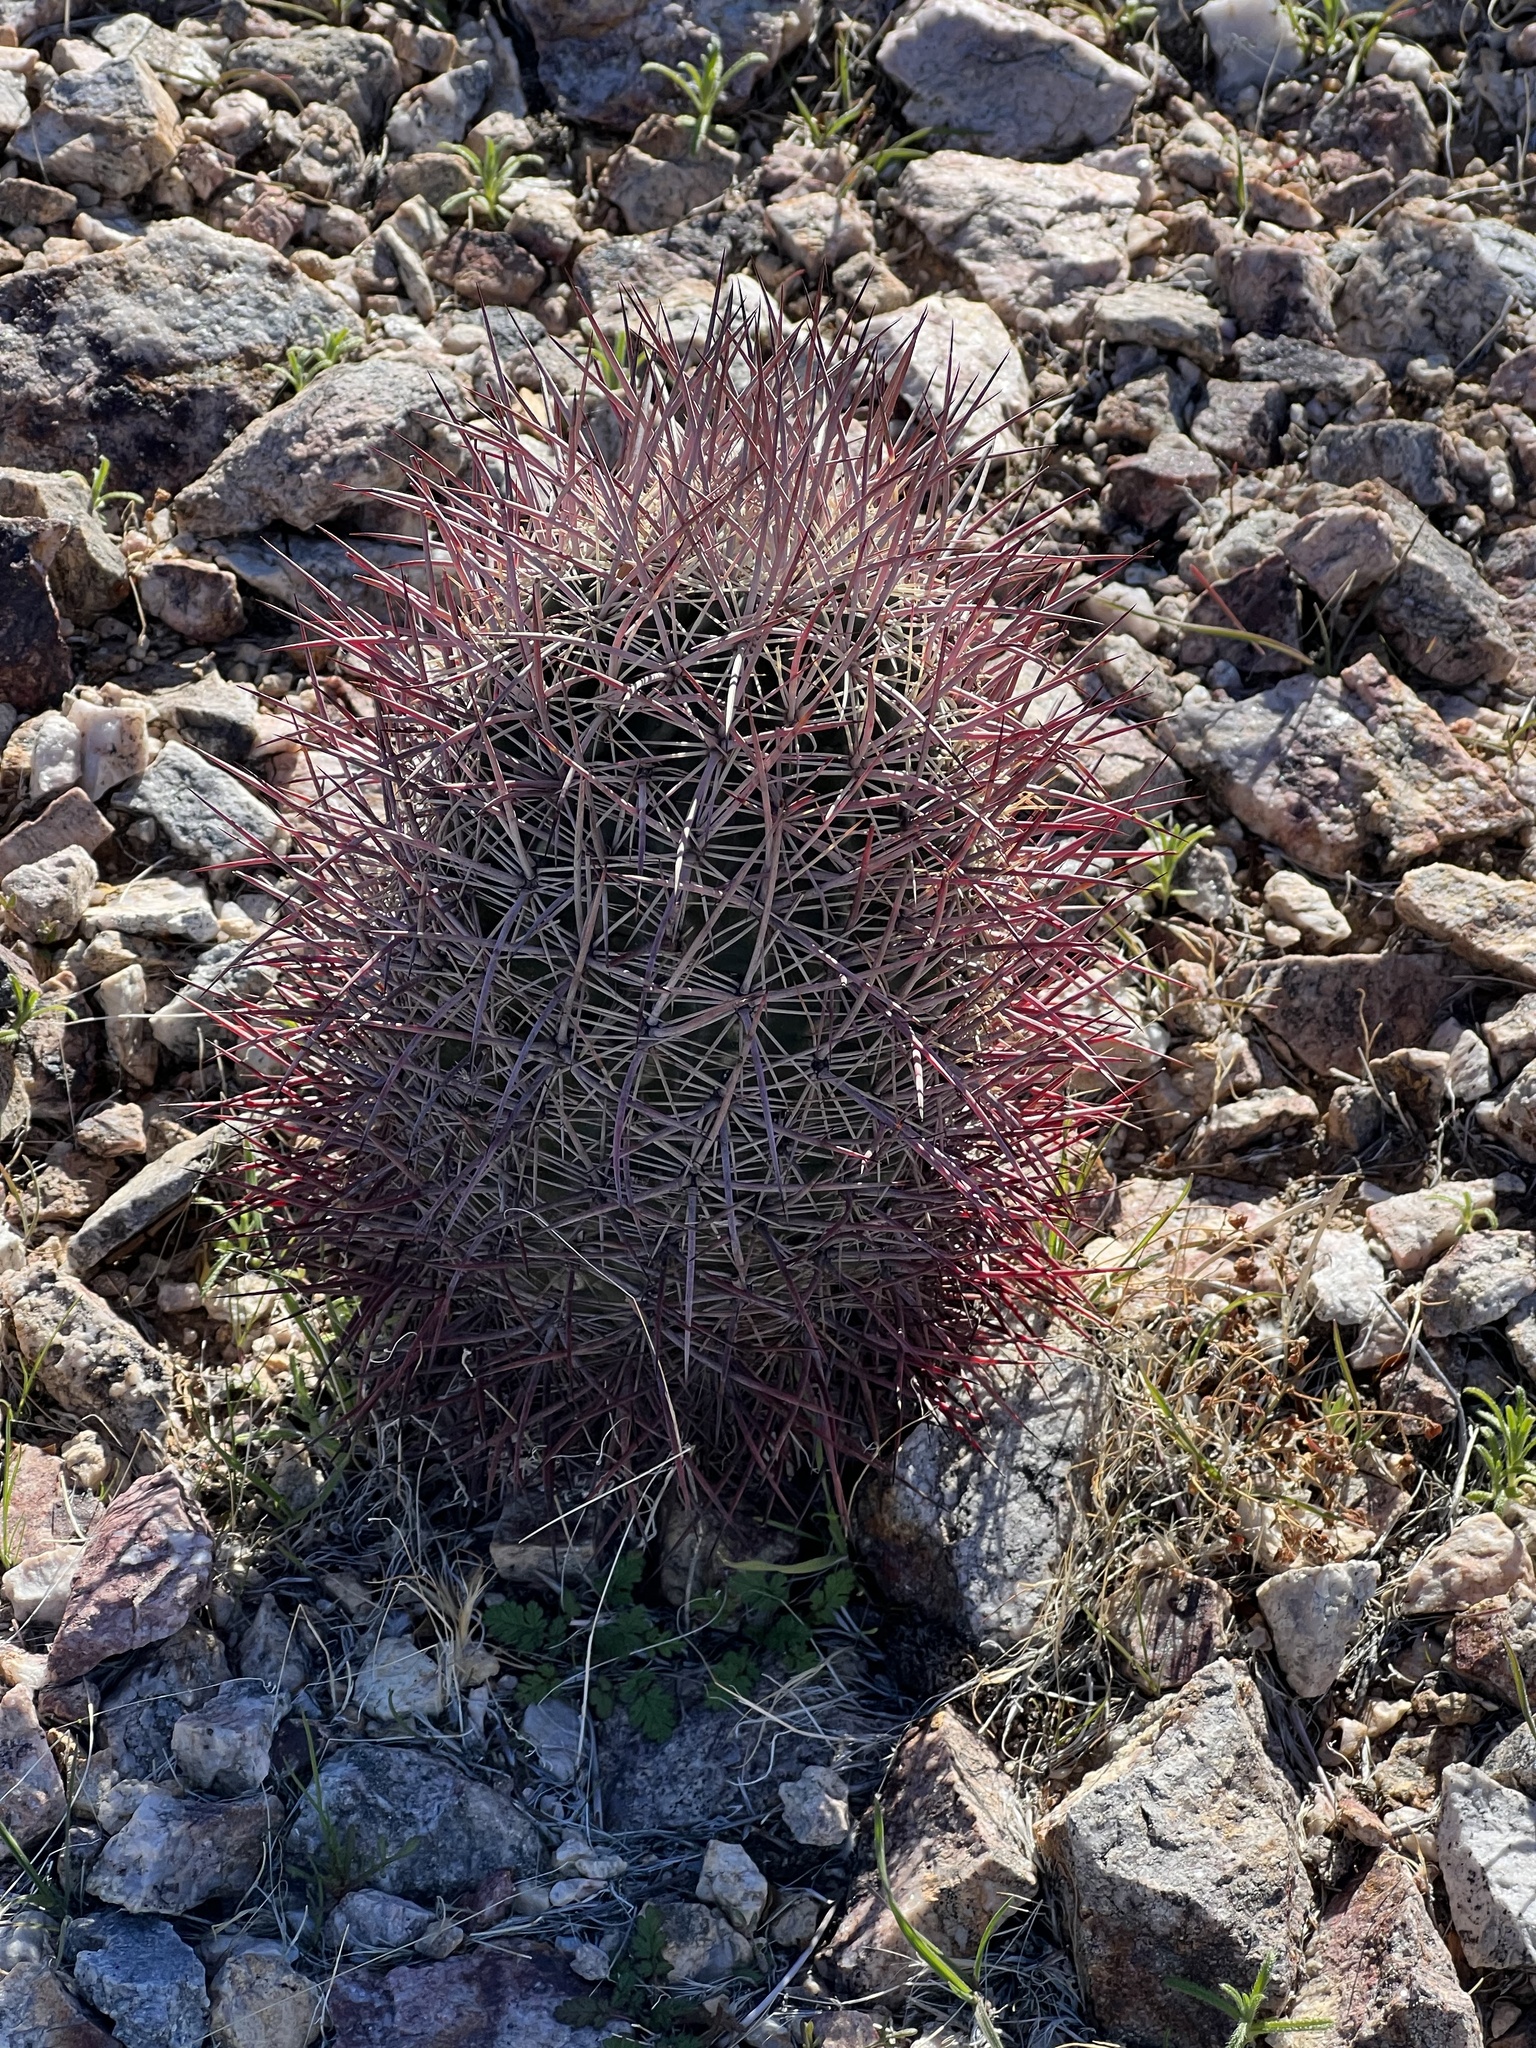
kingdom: Plantae
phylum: Tracheophyta
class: Magnoliopsida
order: Caryophyllales
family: Cactaceae
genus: Sclerocactus
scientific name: Sclerocactus johnsonii
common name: Eight-spine fishhook cactus
